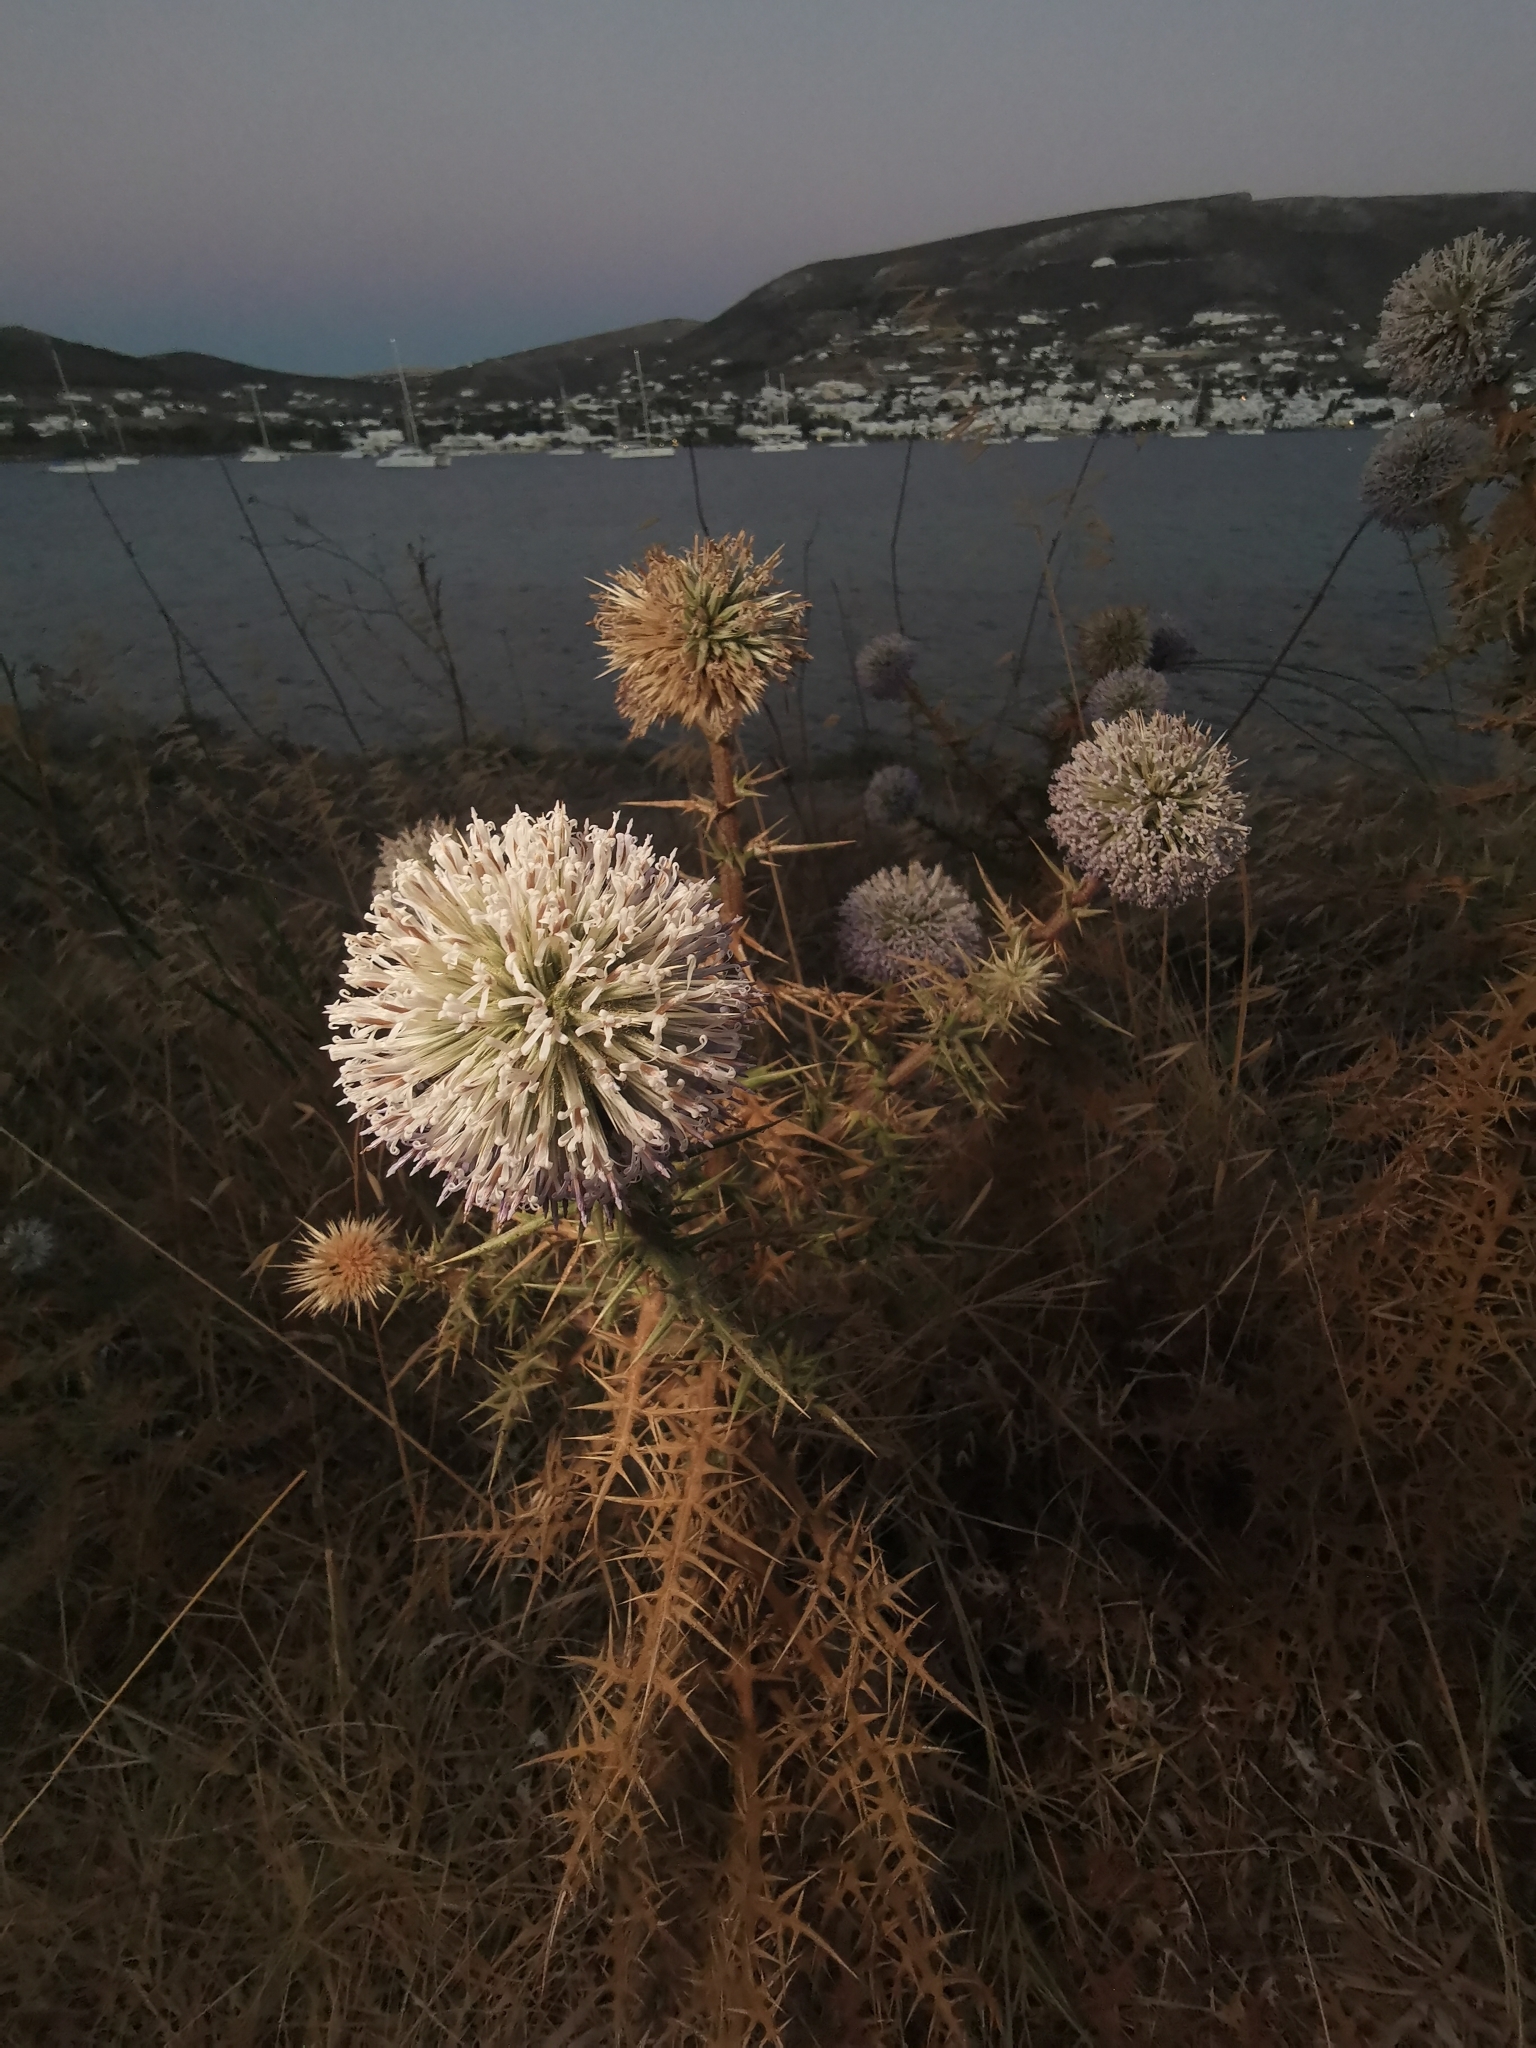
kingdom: Plantae
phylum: Tracheophyta
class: Magnoliopsida
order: Asterales
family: Asteraceae
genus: Echinops
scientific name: Echinops spinosissimus
